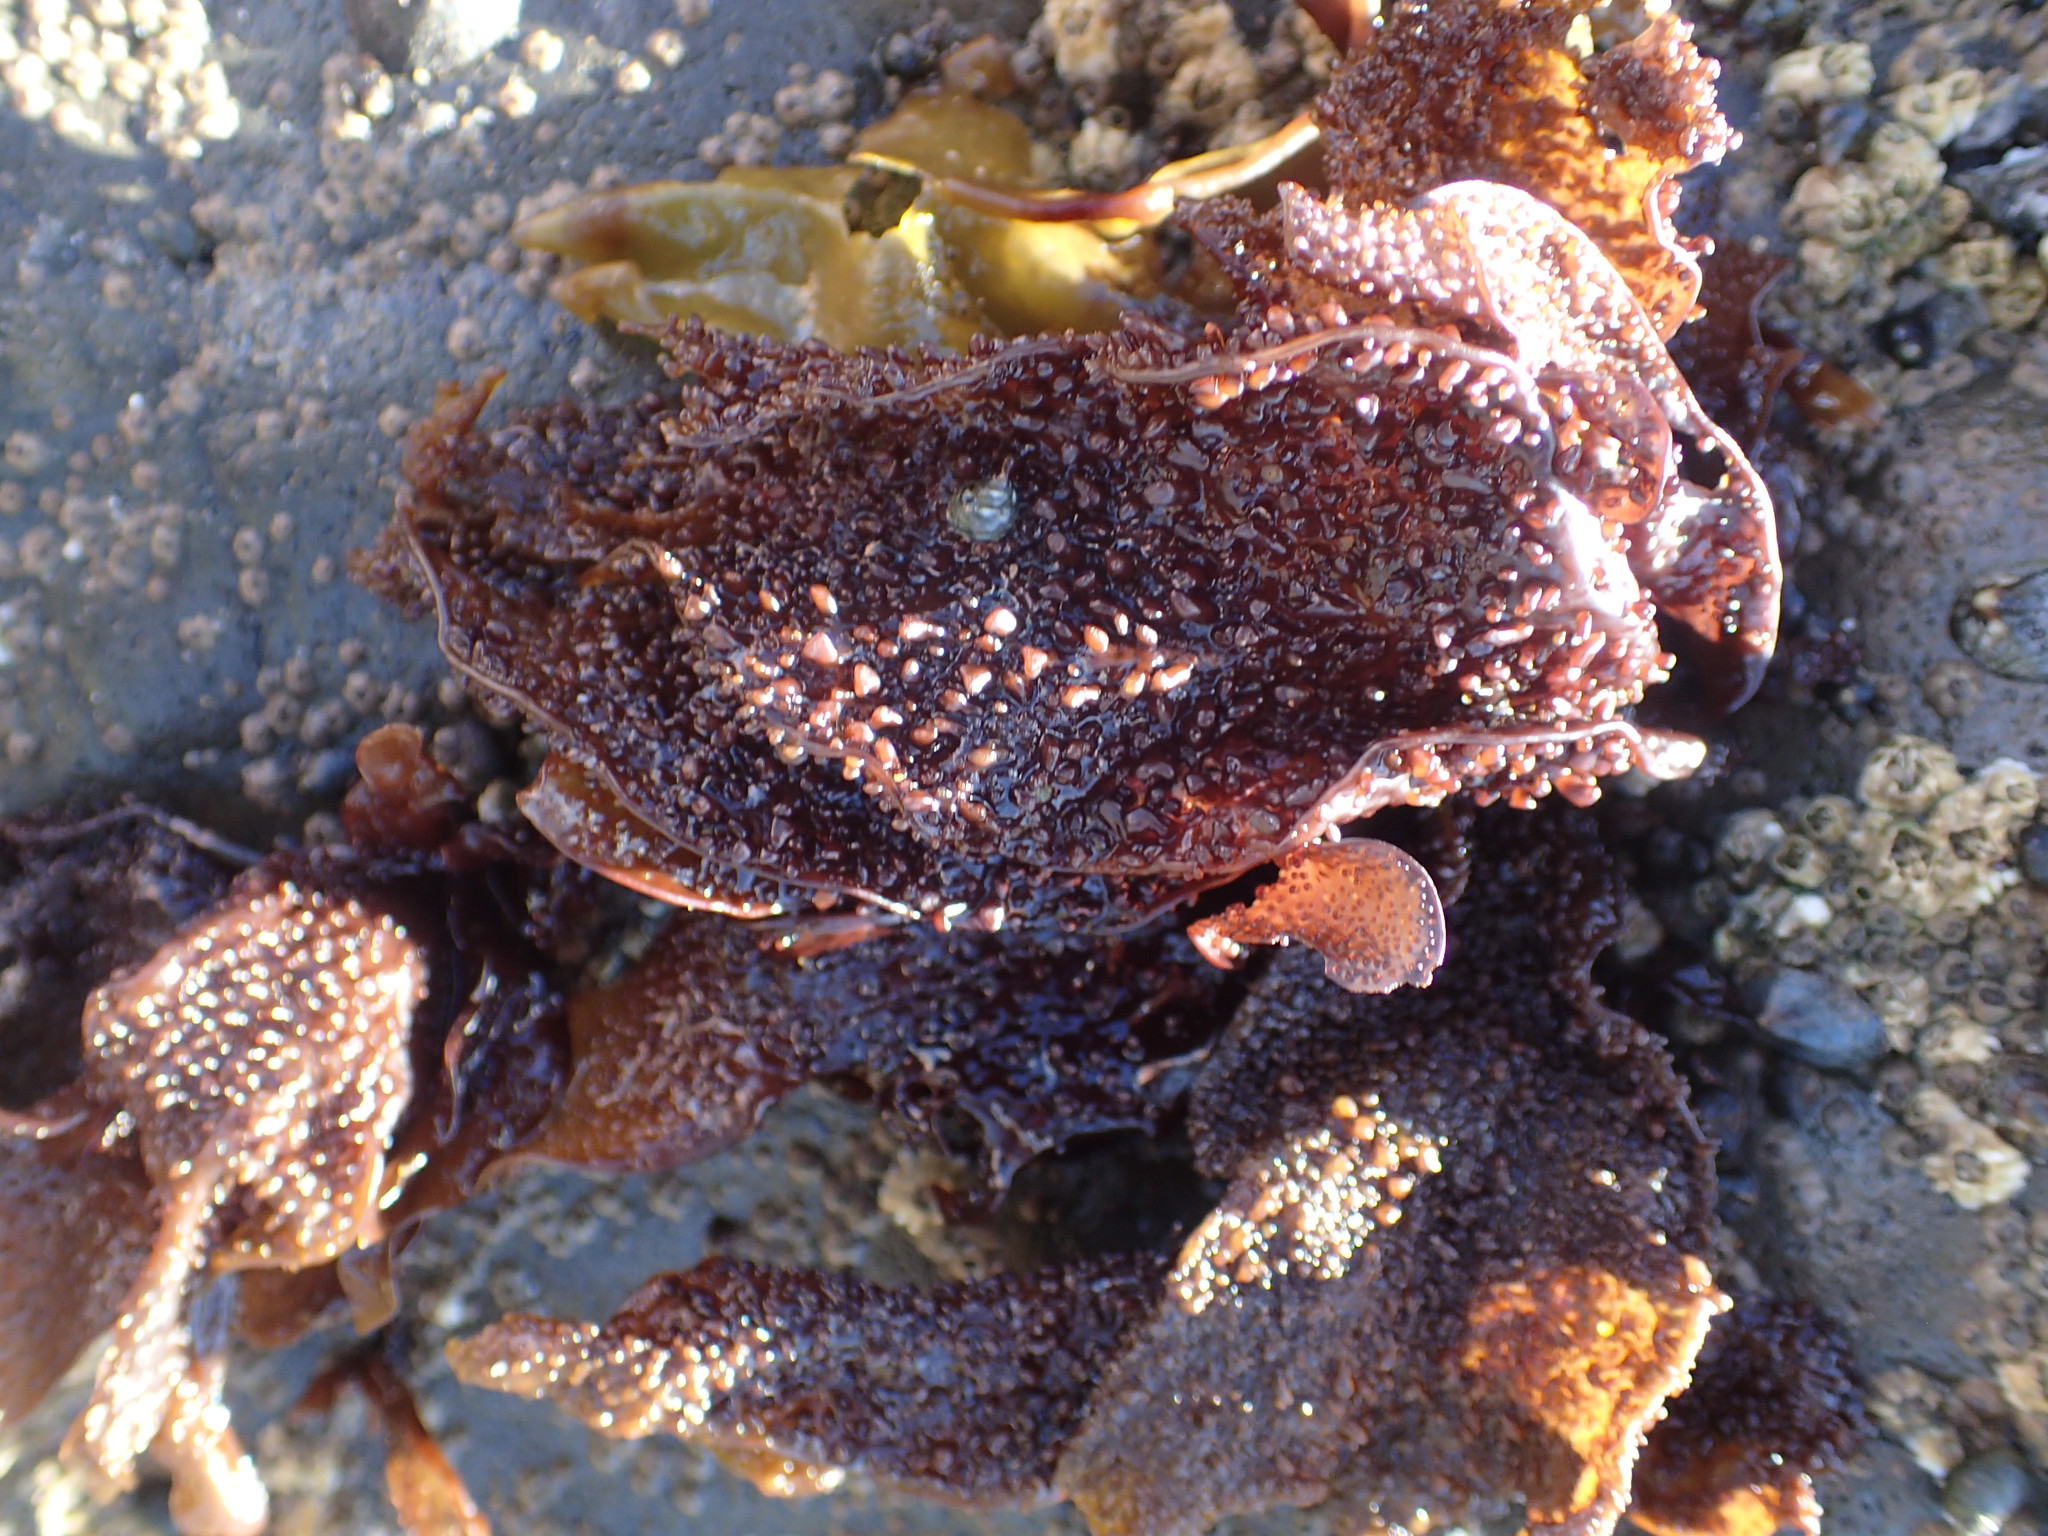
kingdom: Plantae
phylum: Rhodophyta
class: Florideophyceae
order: Gigartinales
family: Gigartinaceae
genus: Chondracanthus
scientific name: Chondracanthus exasperatus
